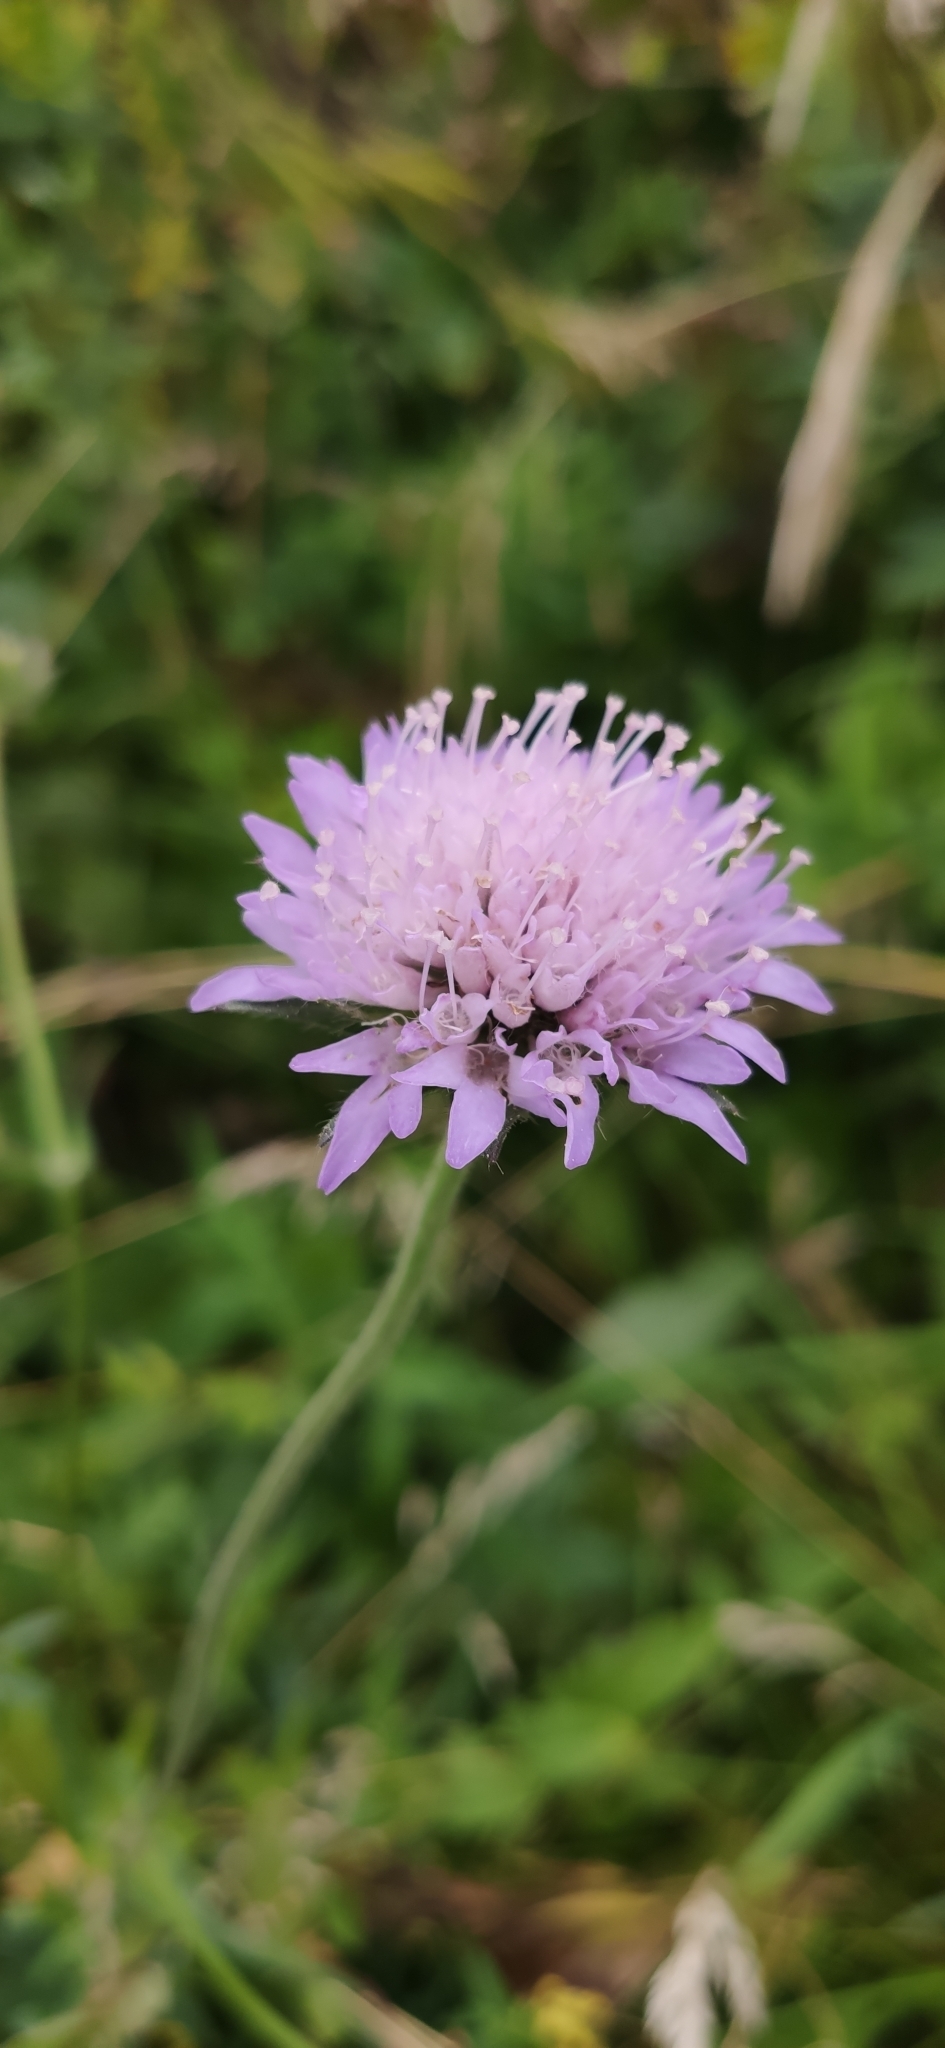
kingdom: Plantae
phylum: Tracheophyta
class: Magnoliopsida
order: Dipsacales
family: Caprifoliaceae
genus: Knautia
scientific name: Knautia arvensis
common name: Field scabiosa
